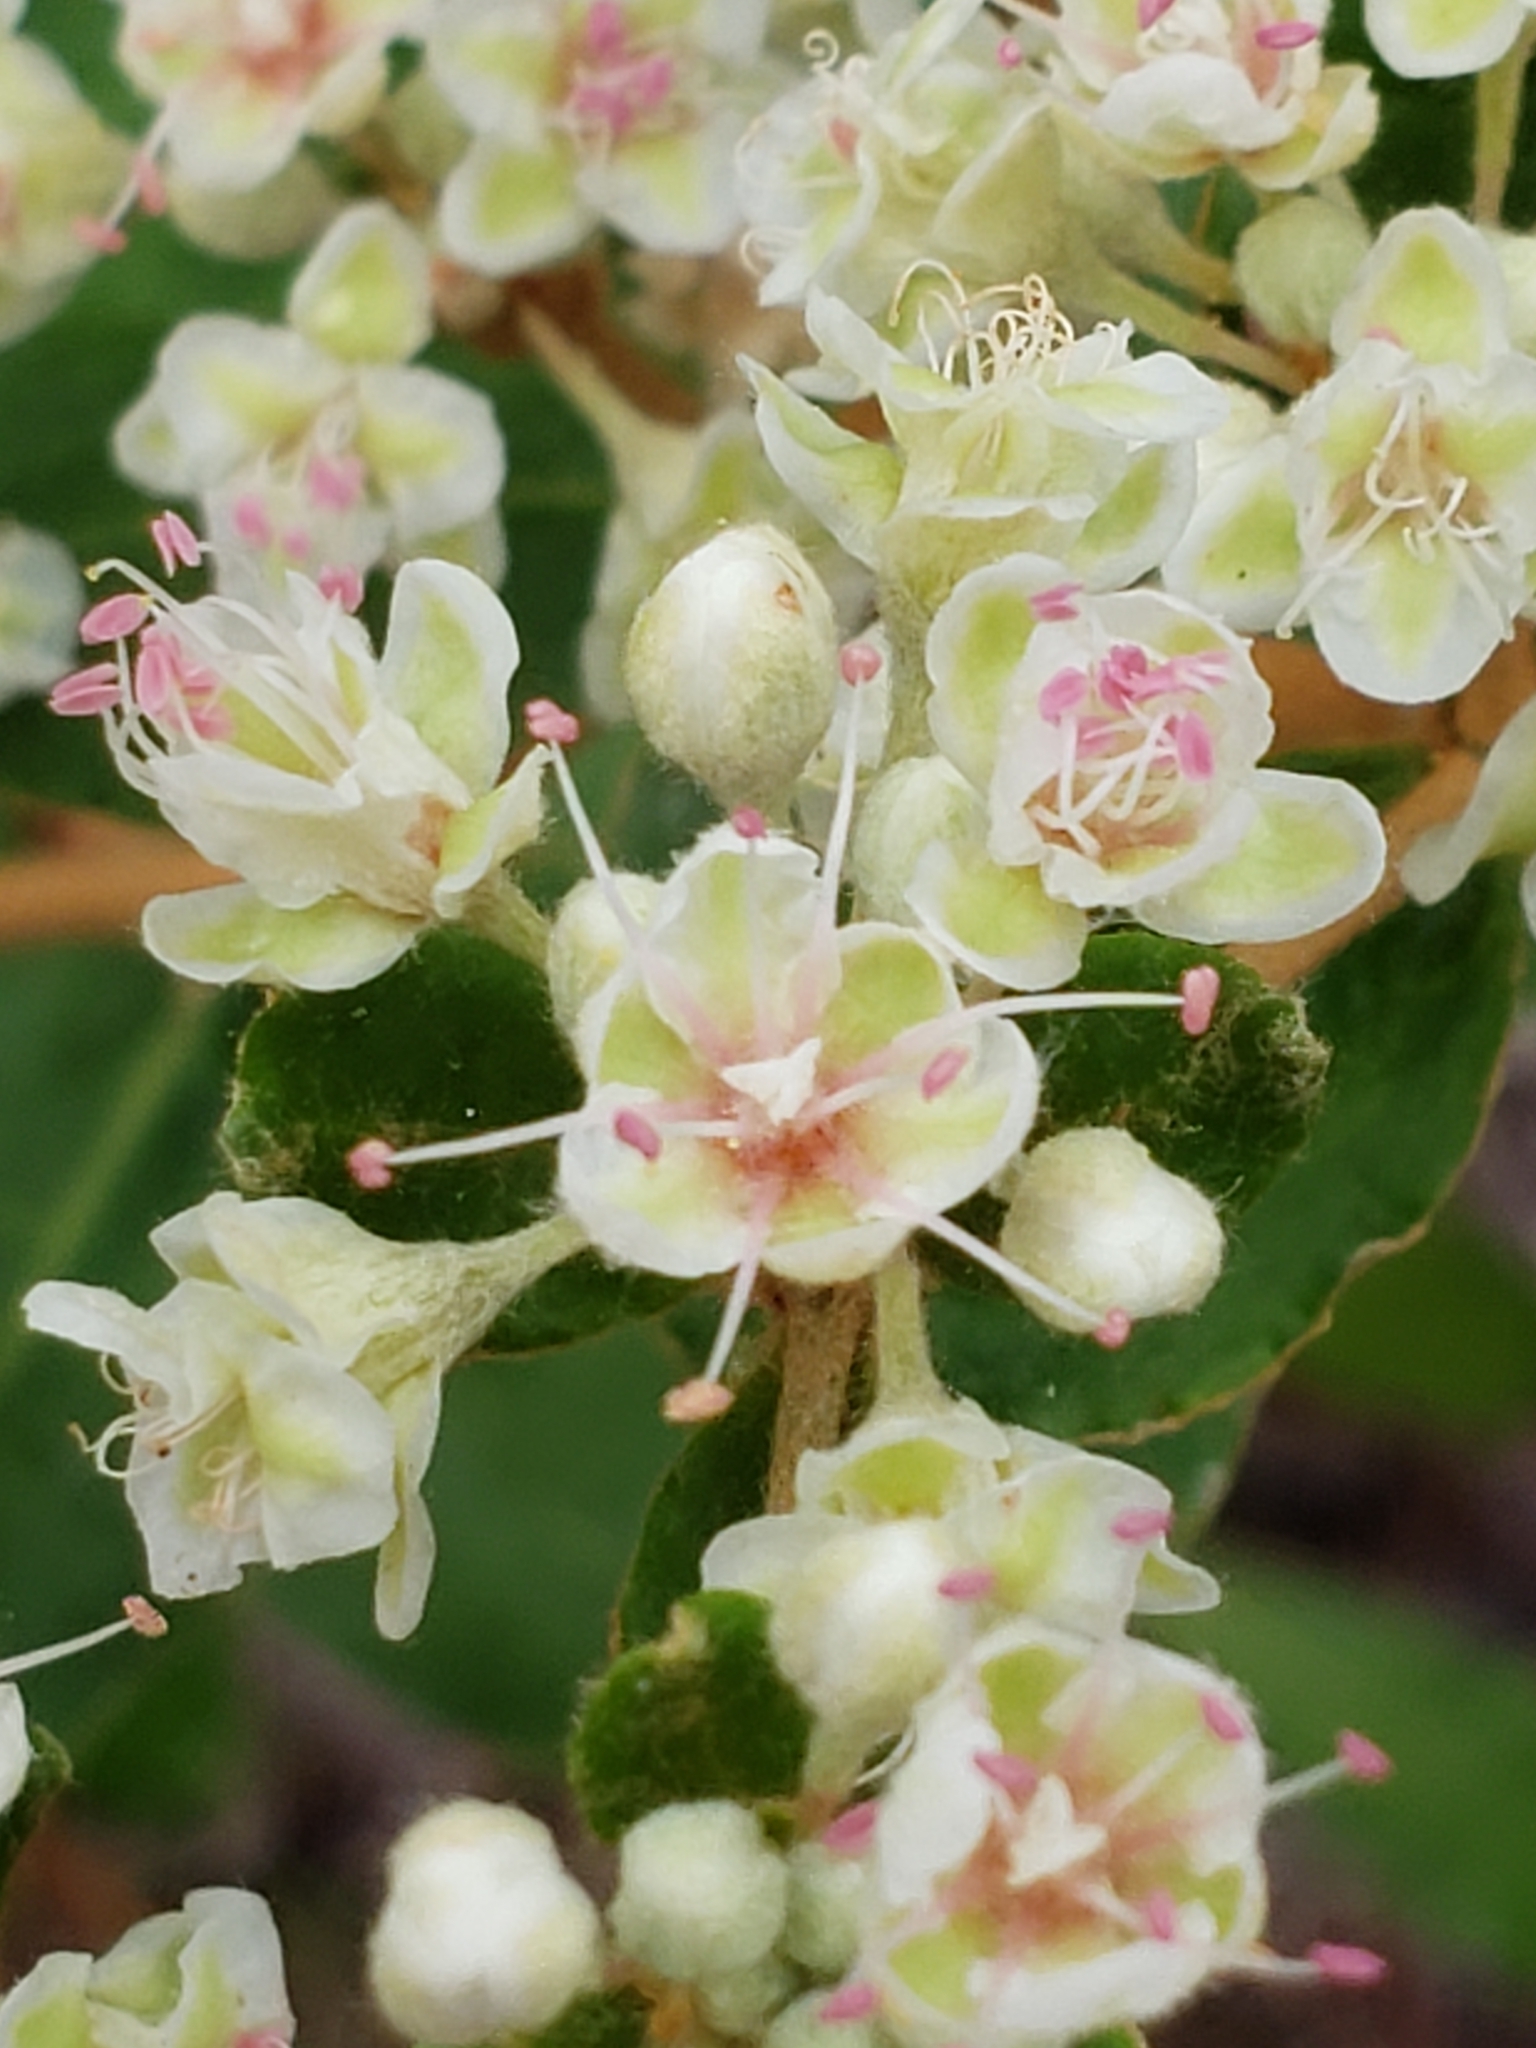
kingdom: Plantae
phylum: Tracheophyta
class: Magnoliopsida
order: Caryophyllales
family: Polygonaceae
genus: Eriogonum
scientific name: Eriogonum tomentosum
